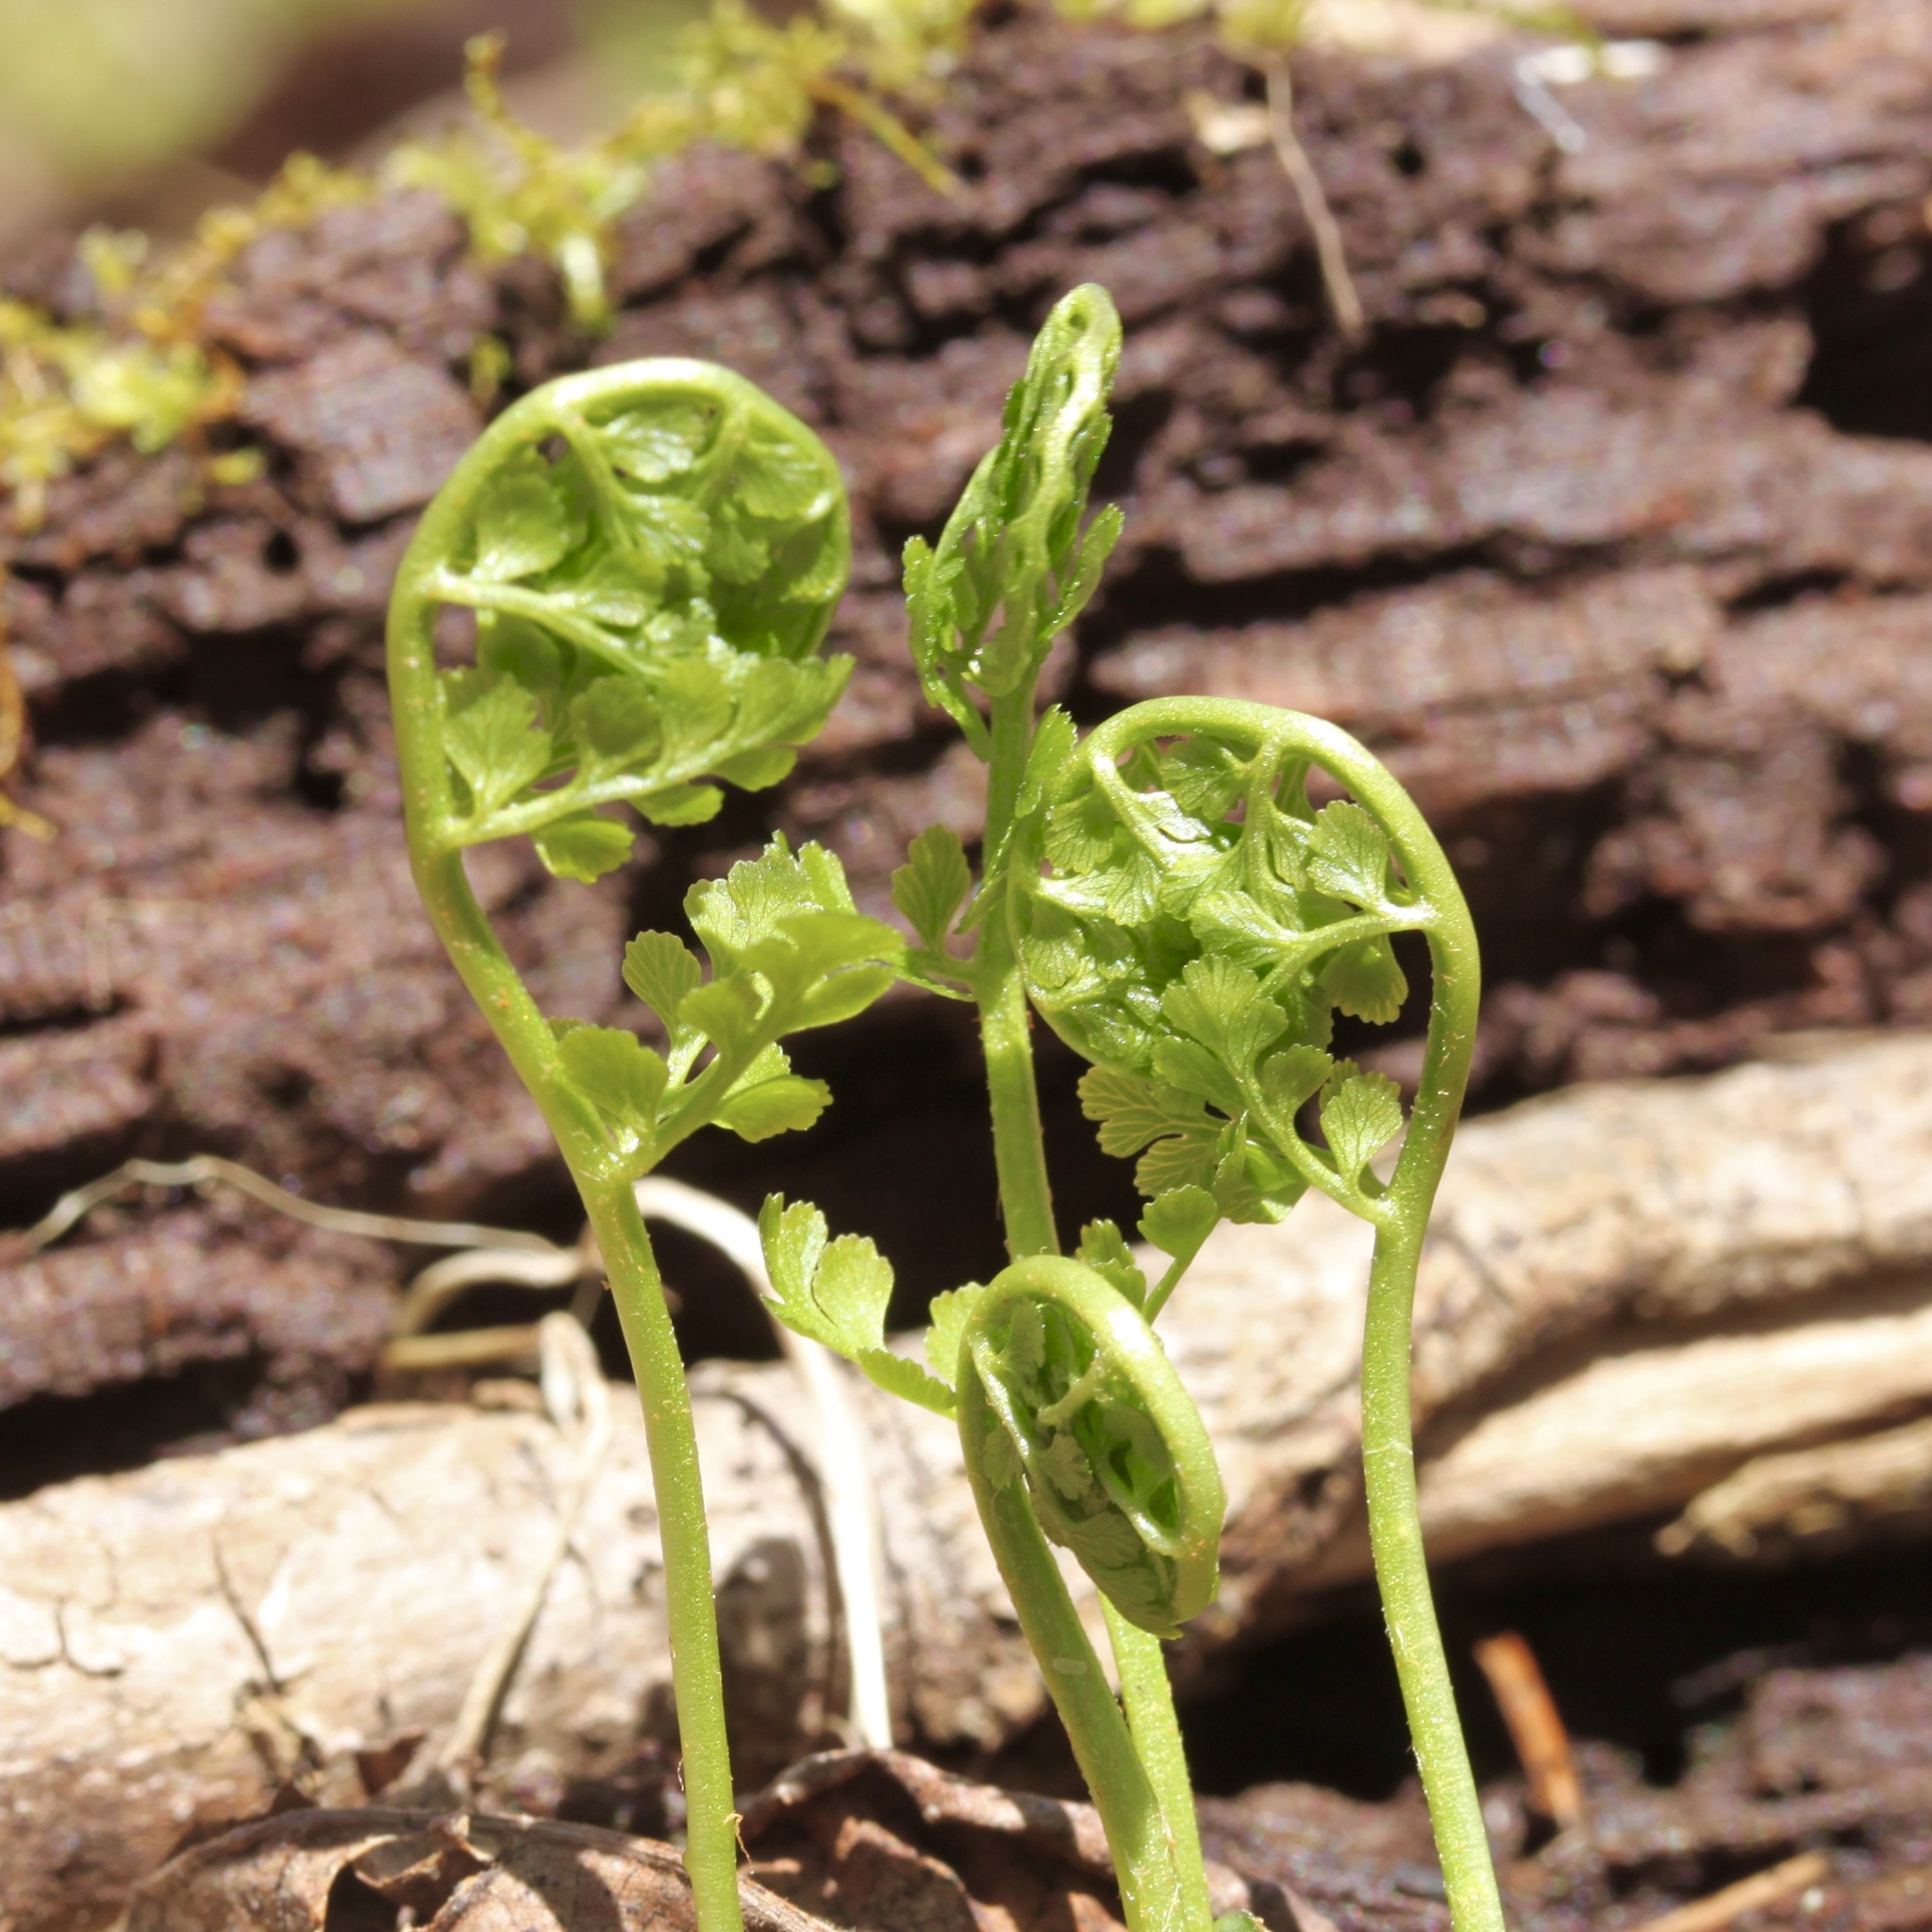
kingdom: Plantae
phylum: Tracheophyta
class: Polypodiopsida
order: Polypodiales
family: Cystopteridaceae
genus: Cystopteris
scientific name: Cystopteris protrusa
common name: Lowland brittle fern
